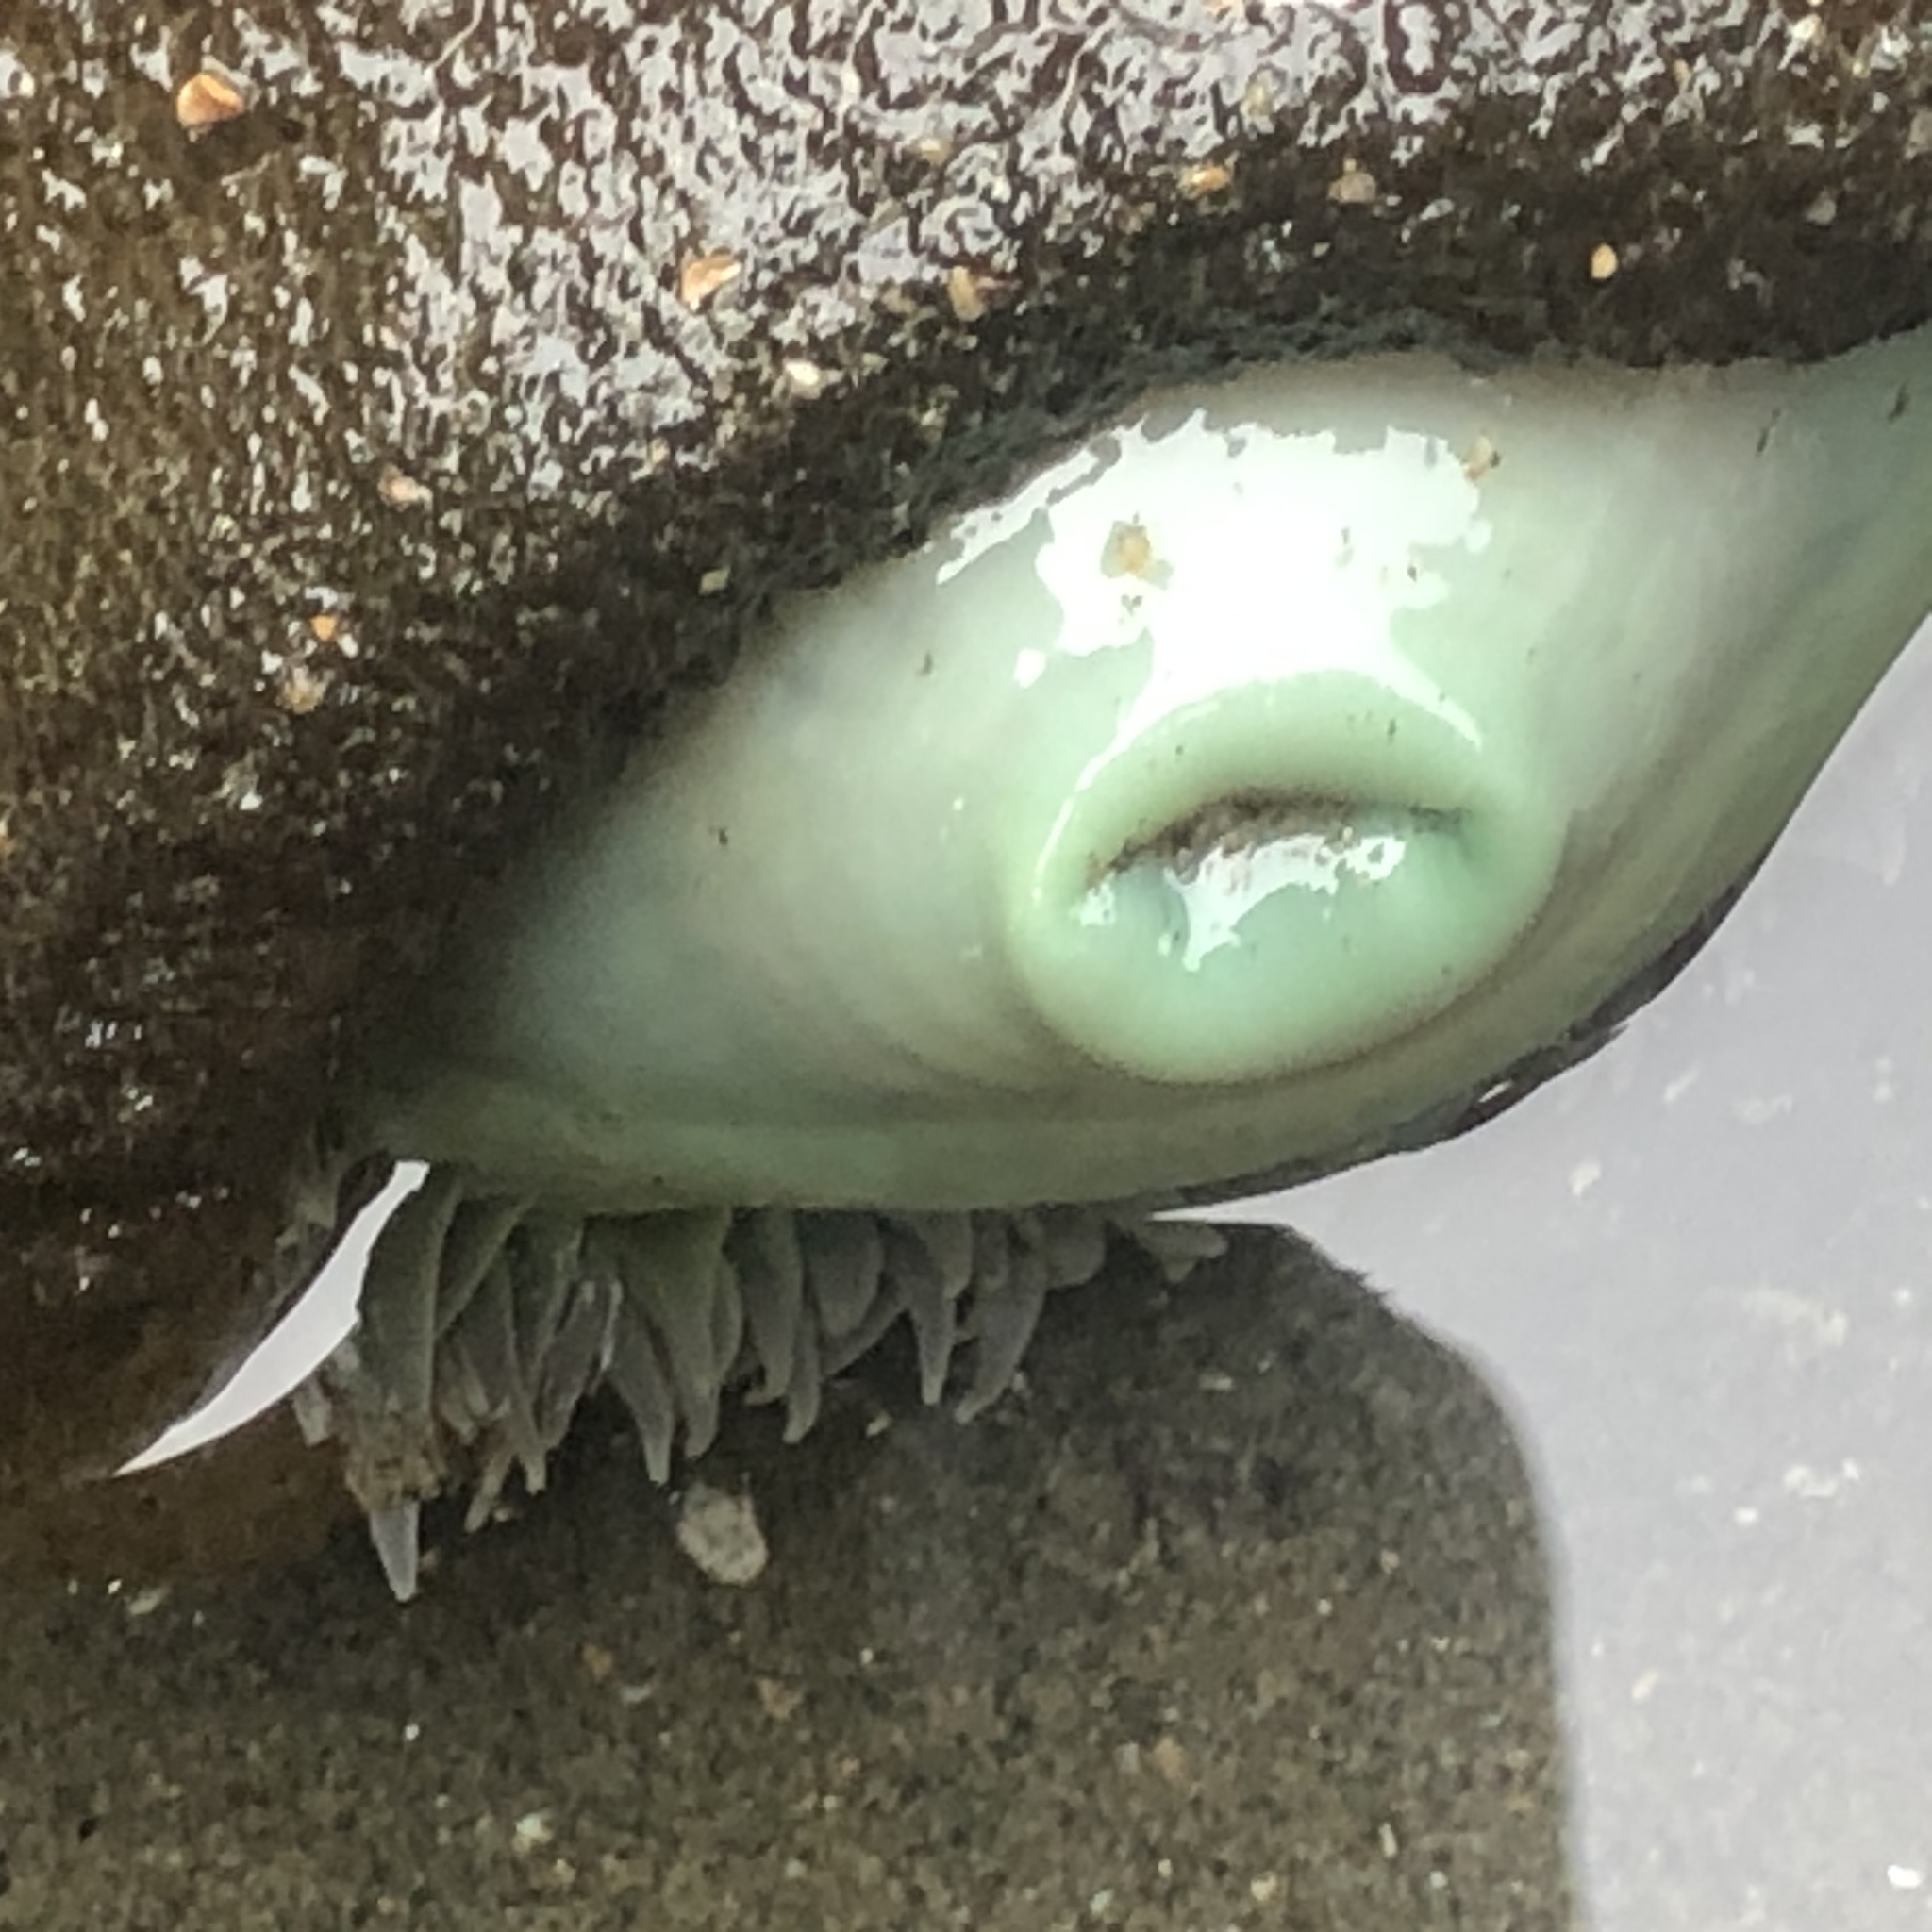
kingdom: Animalia
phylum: Cnidaria
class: Anthozoa
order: Actiniaria
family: Actiniidae
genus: Anthopleura
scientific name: Anthopleura xanthogrammica
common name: Giant green anemone
